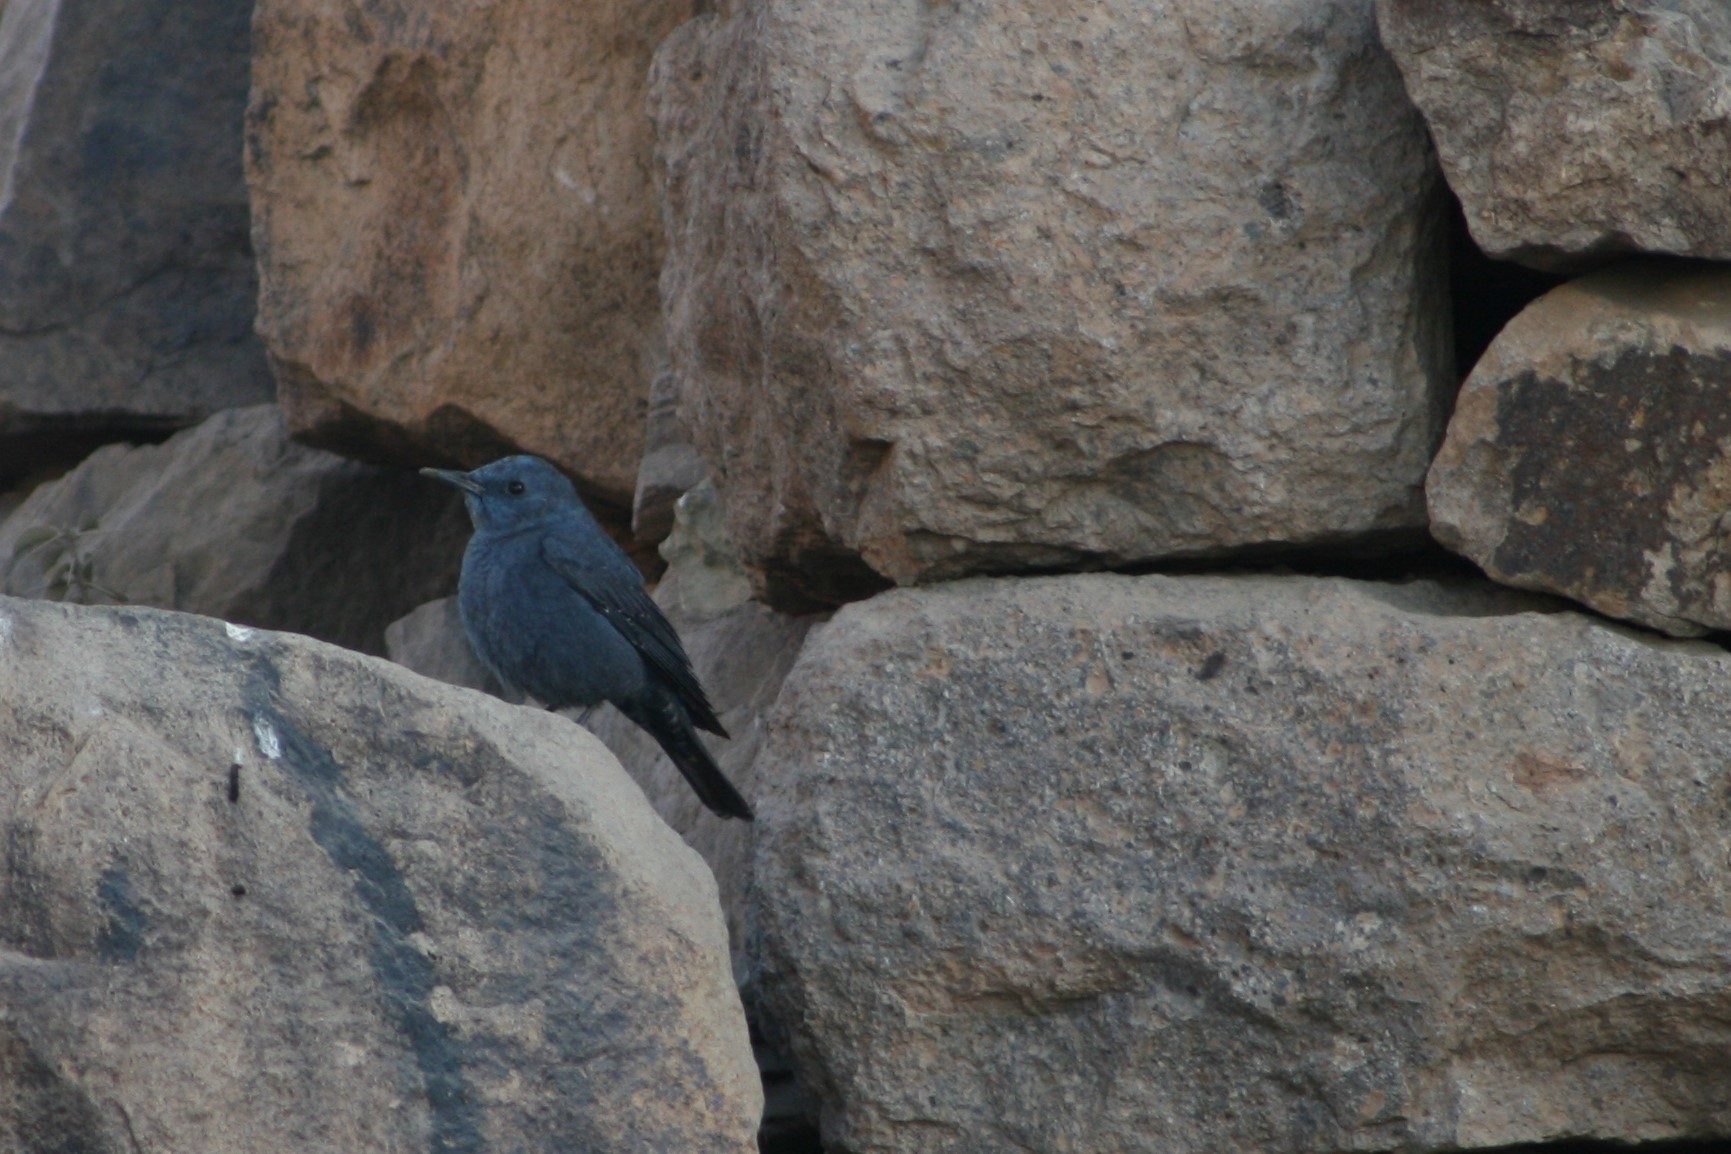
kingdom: Animalia
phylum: Chordata
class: Aves
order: Passeriformes
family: Muscicapidae
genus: Monticola
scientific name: Monticola solitarius
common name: Blue rock thrush
